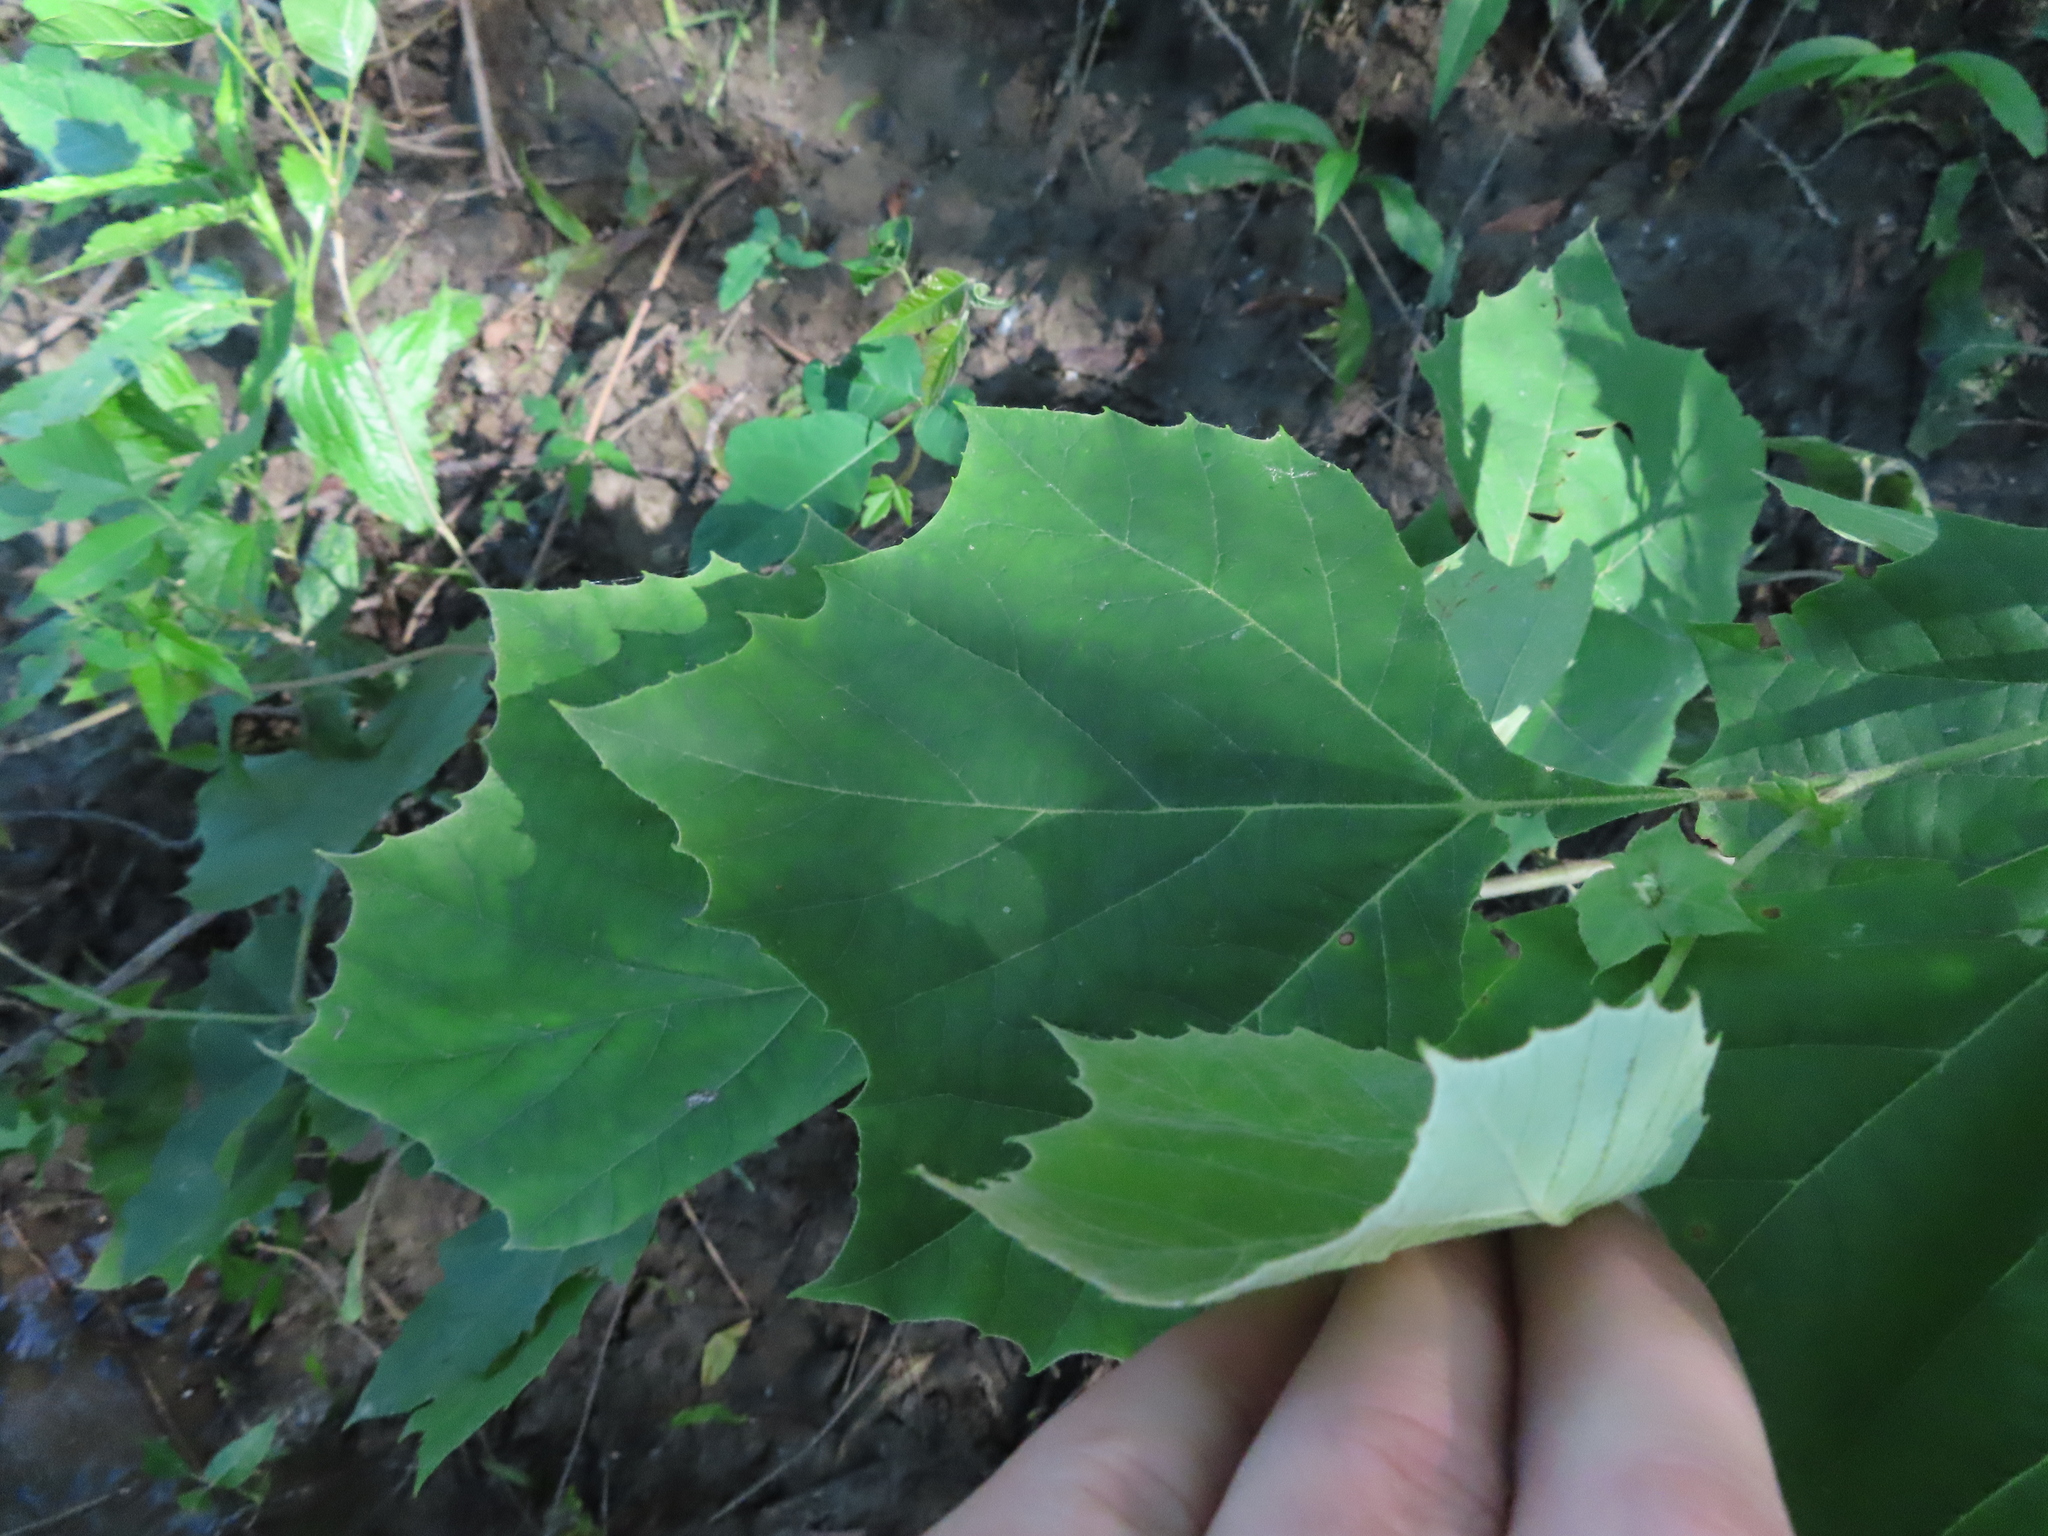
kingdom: Plantae
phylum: Tracheophyta
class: Magnoliopsida
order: Proteales
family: Platanaceae
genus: Platanus
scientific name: Platanus occidentalis
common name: American sycamore
